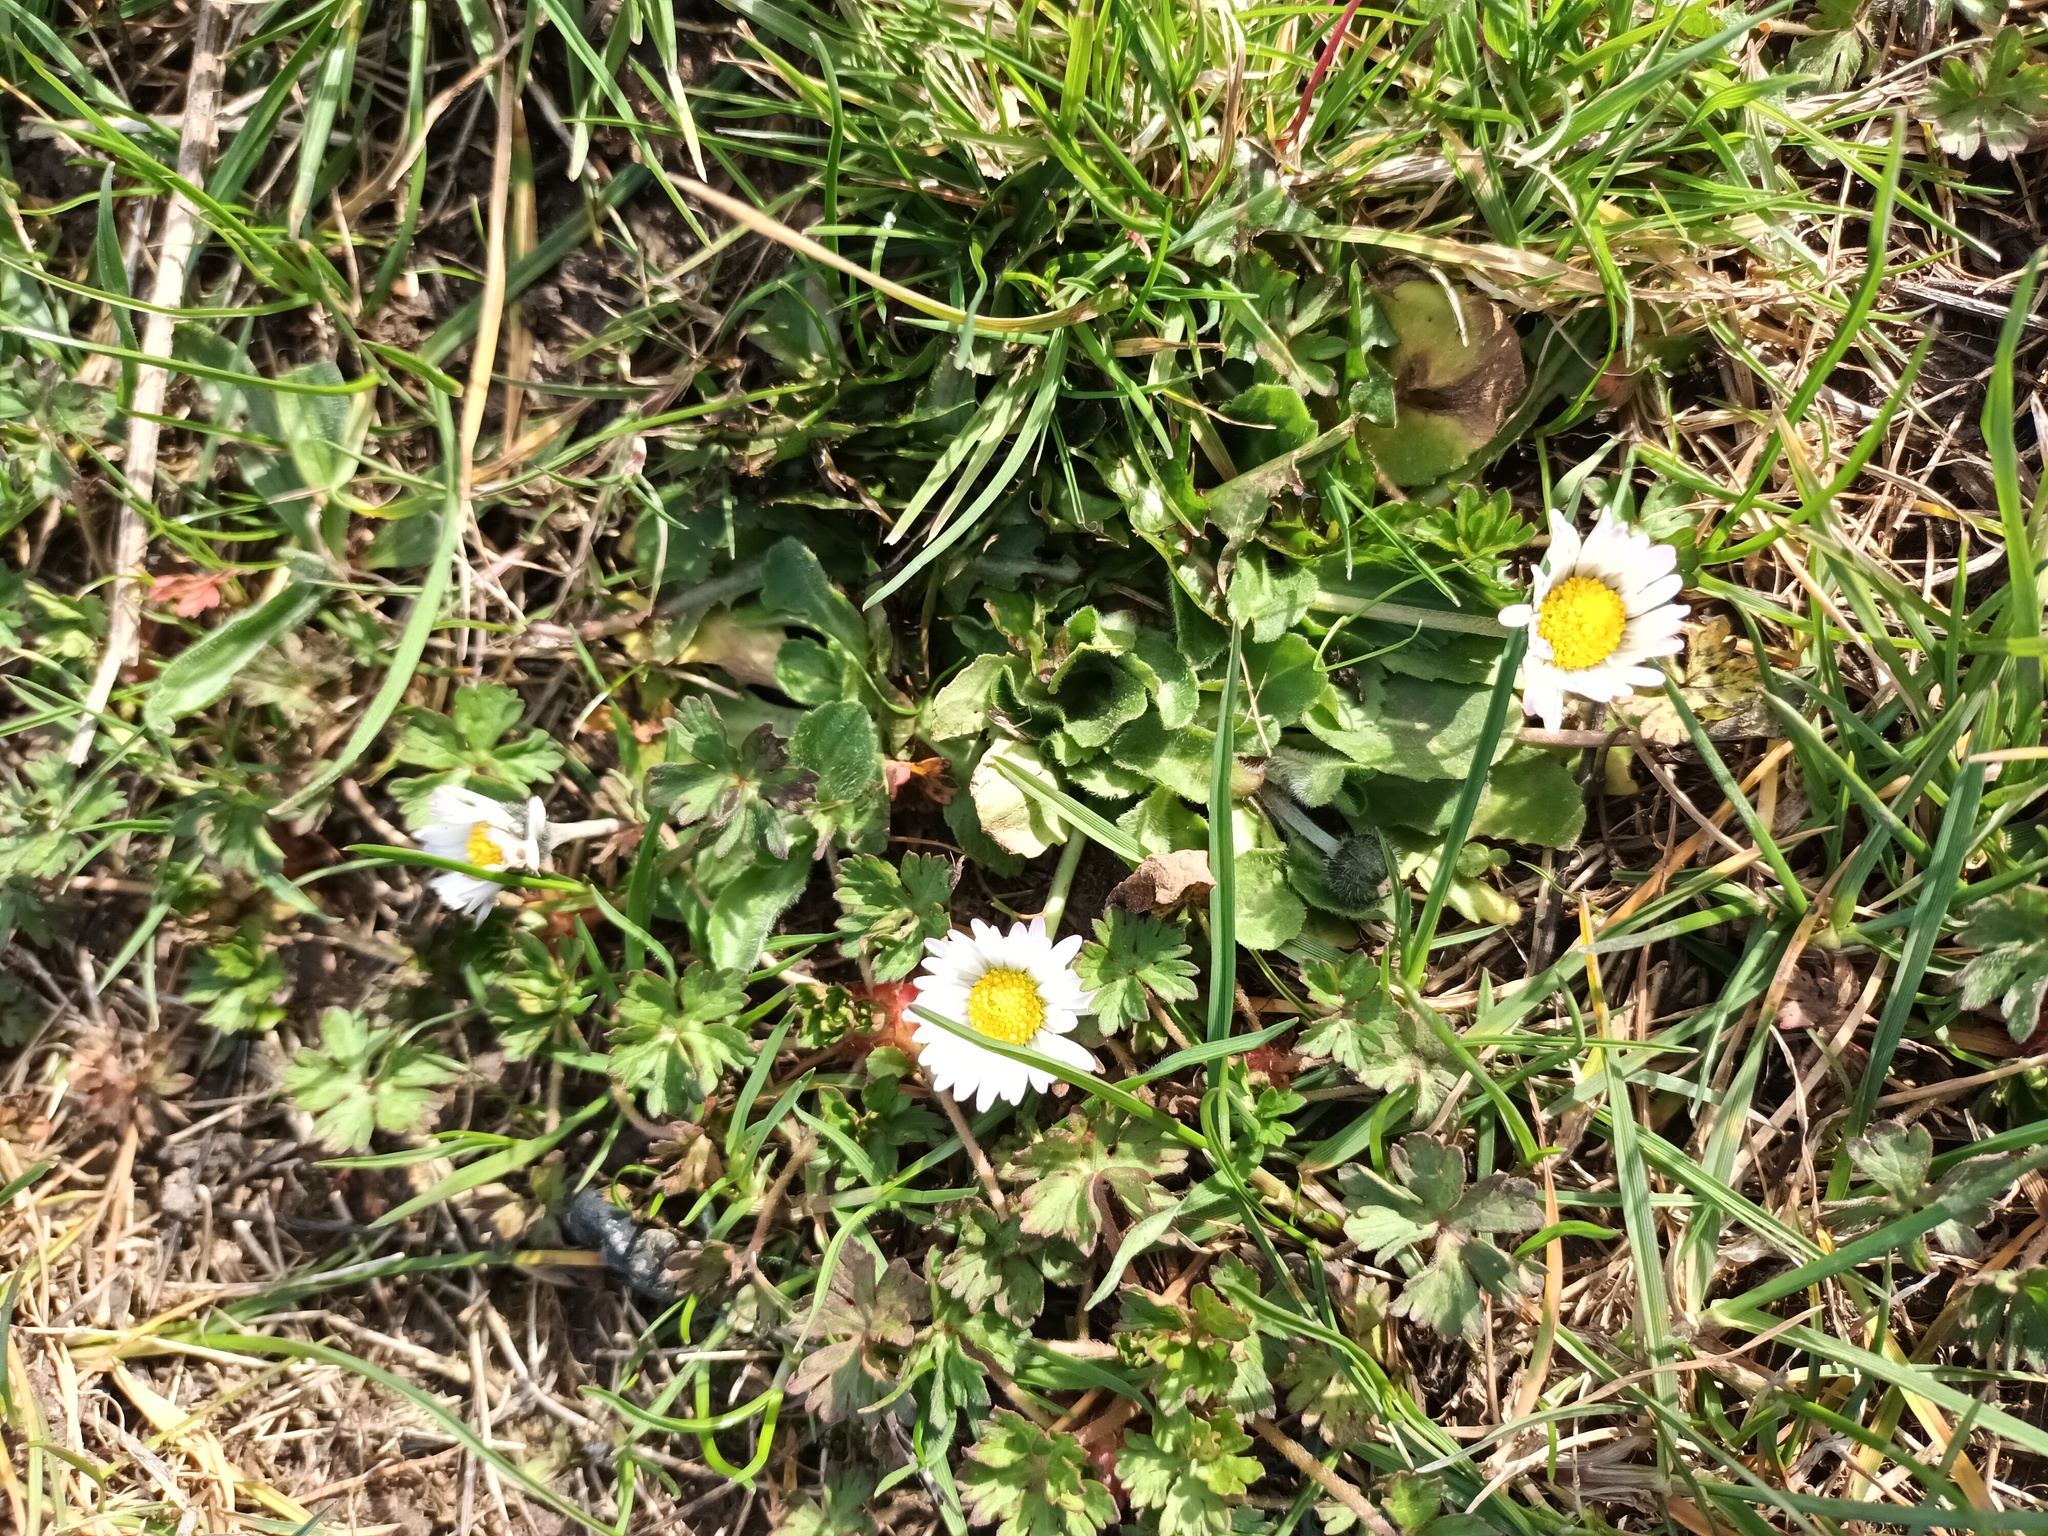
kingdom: Plantae
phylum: Tracheophyta
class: Magnoliopsida
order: Asterales
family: Asteraceae
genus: Bellis
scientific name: Bellis perennis
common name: Lawndaisy
